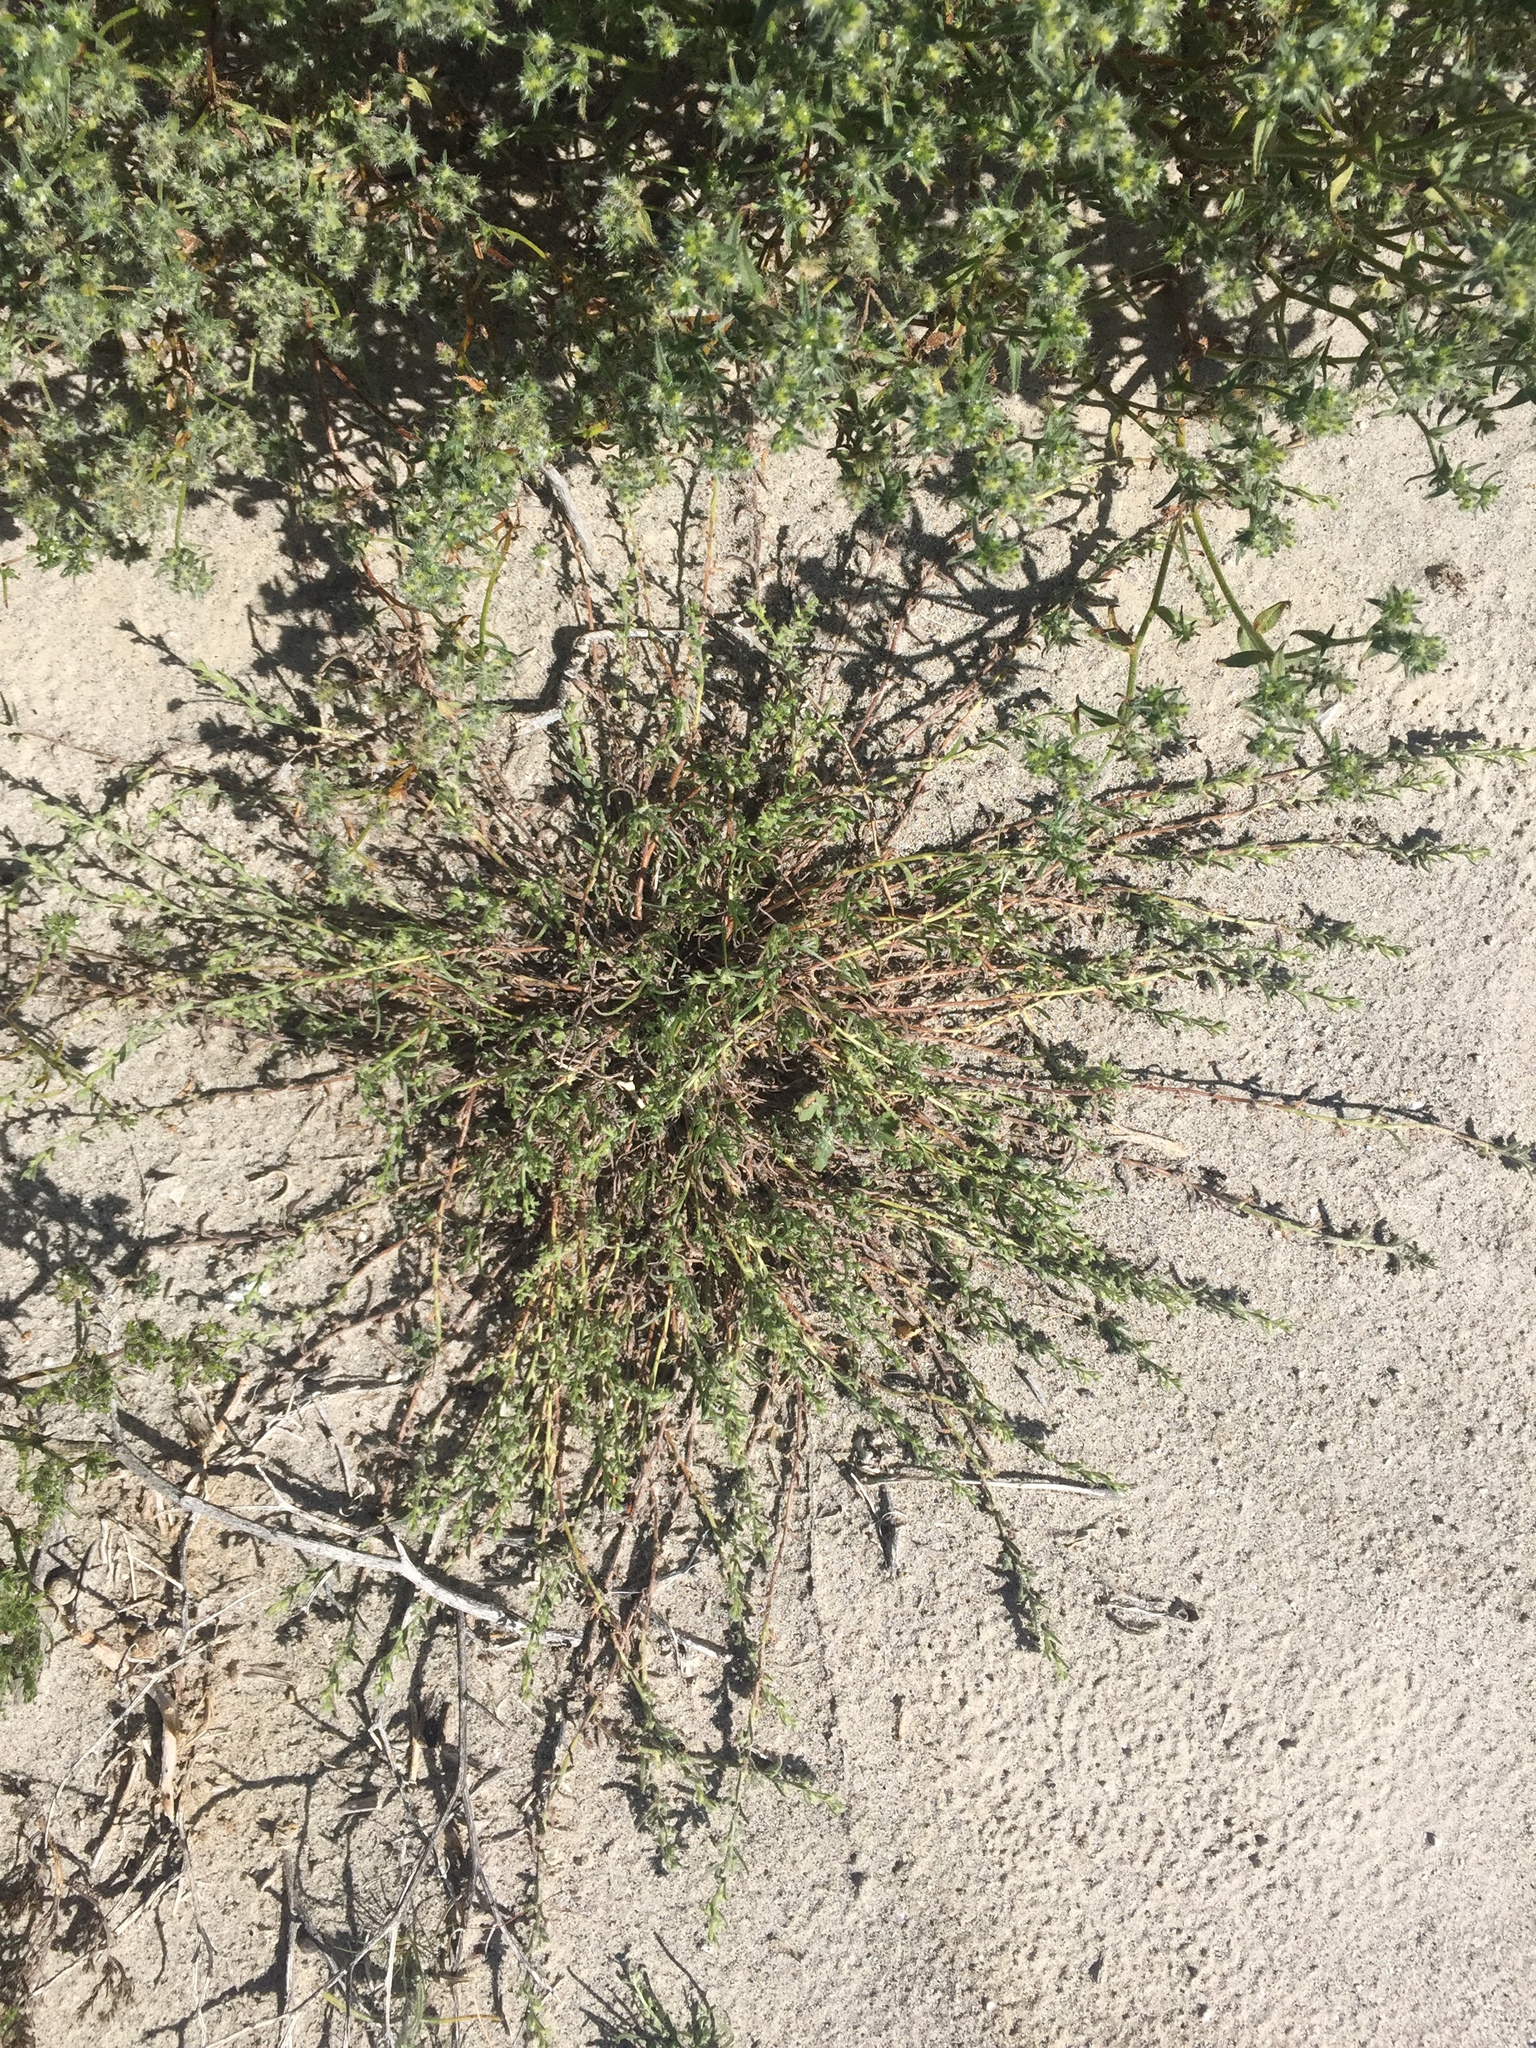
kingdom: Plantae
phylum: Tracheophyta
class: Magnoliopsida
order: Boraginales
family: Boraginaceae
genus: Pectocarya
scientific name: Pectocarya heterocarpa
